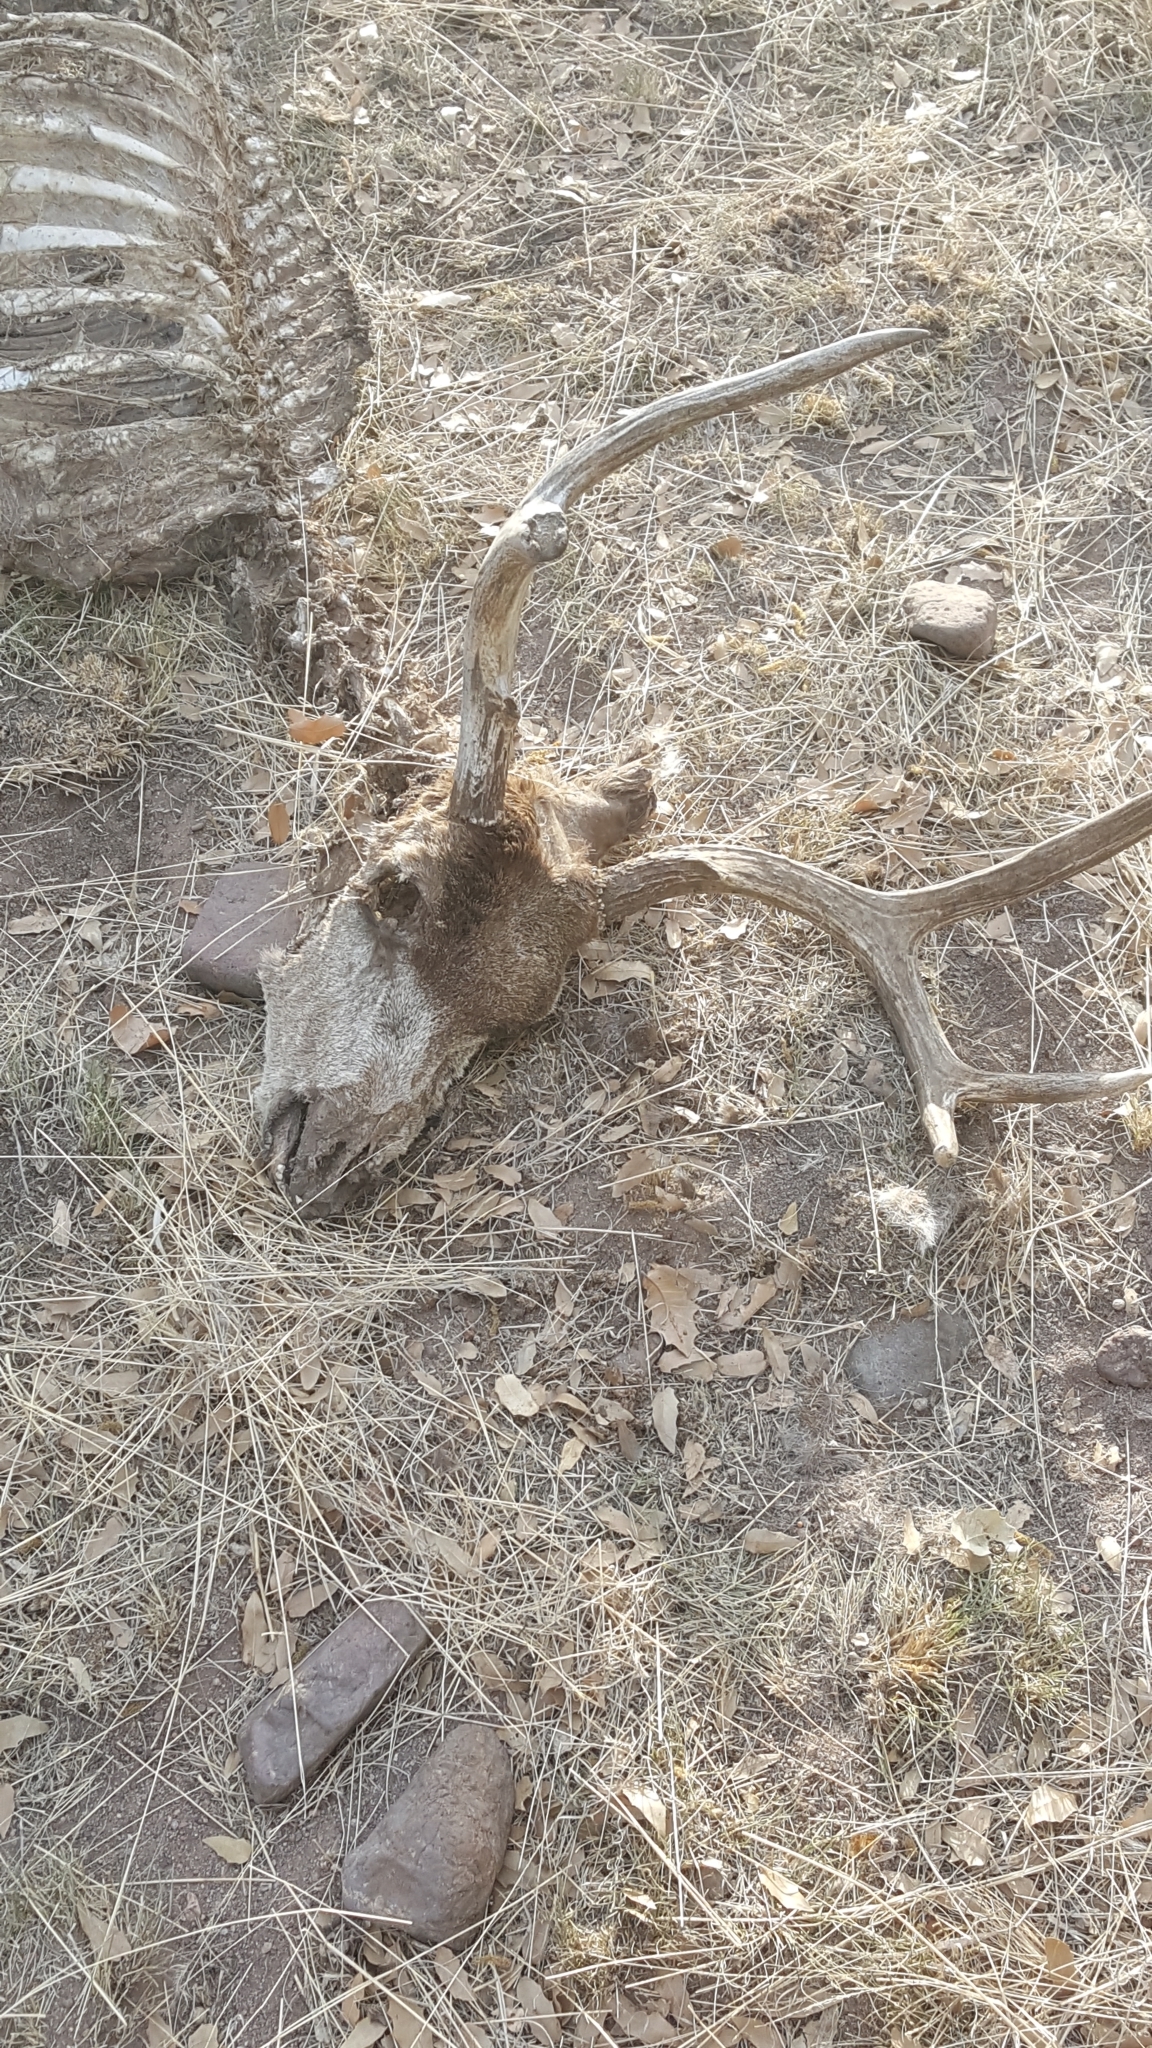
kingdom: Animalia
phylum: Chordata
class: Mammalia
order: Artiodactyla
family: Cervidae
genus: Odocoileus
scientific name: Odocoileus hemionus
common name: Mule deer
